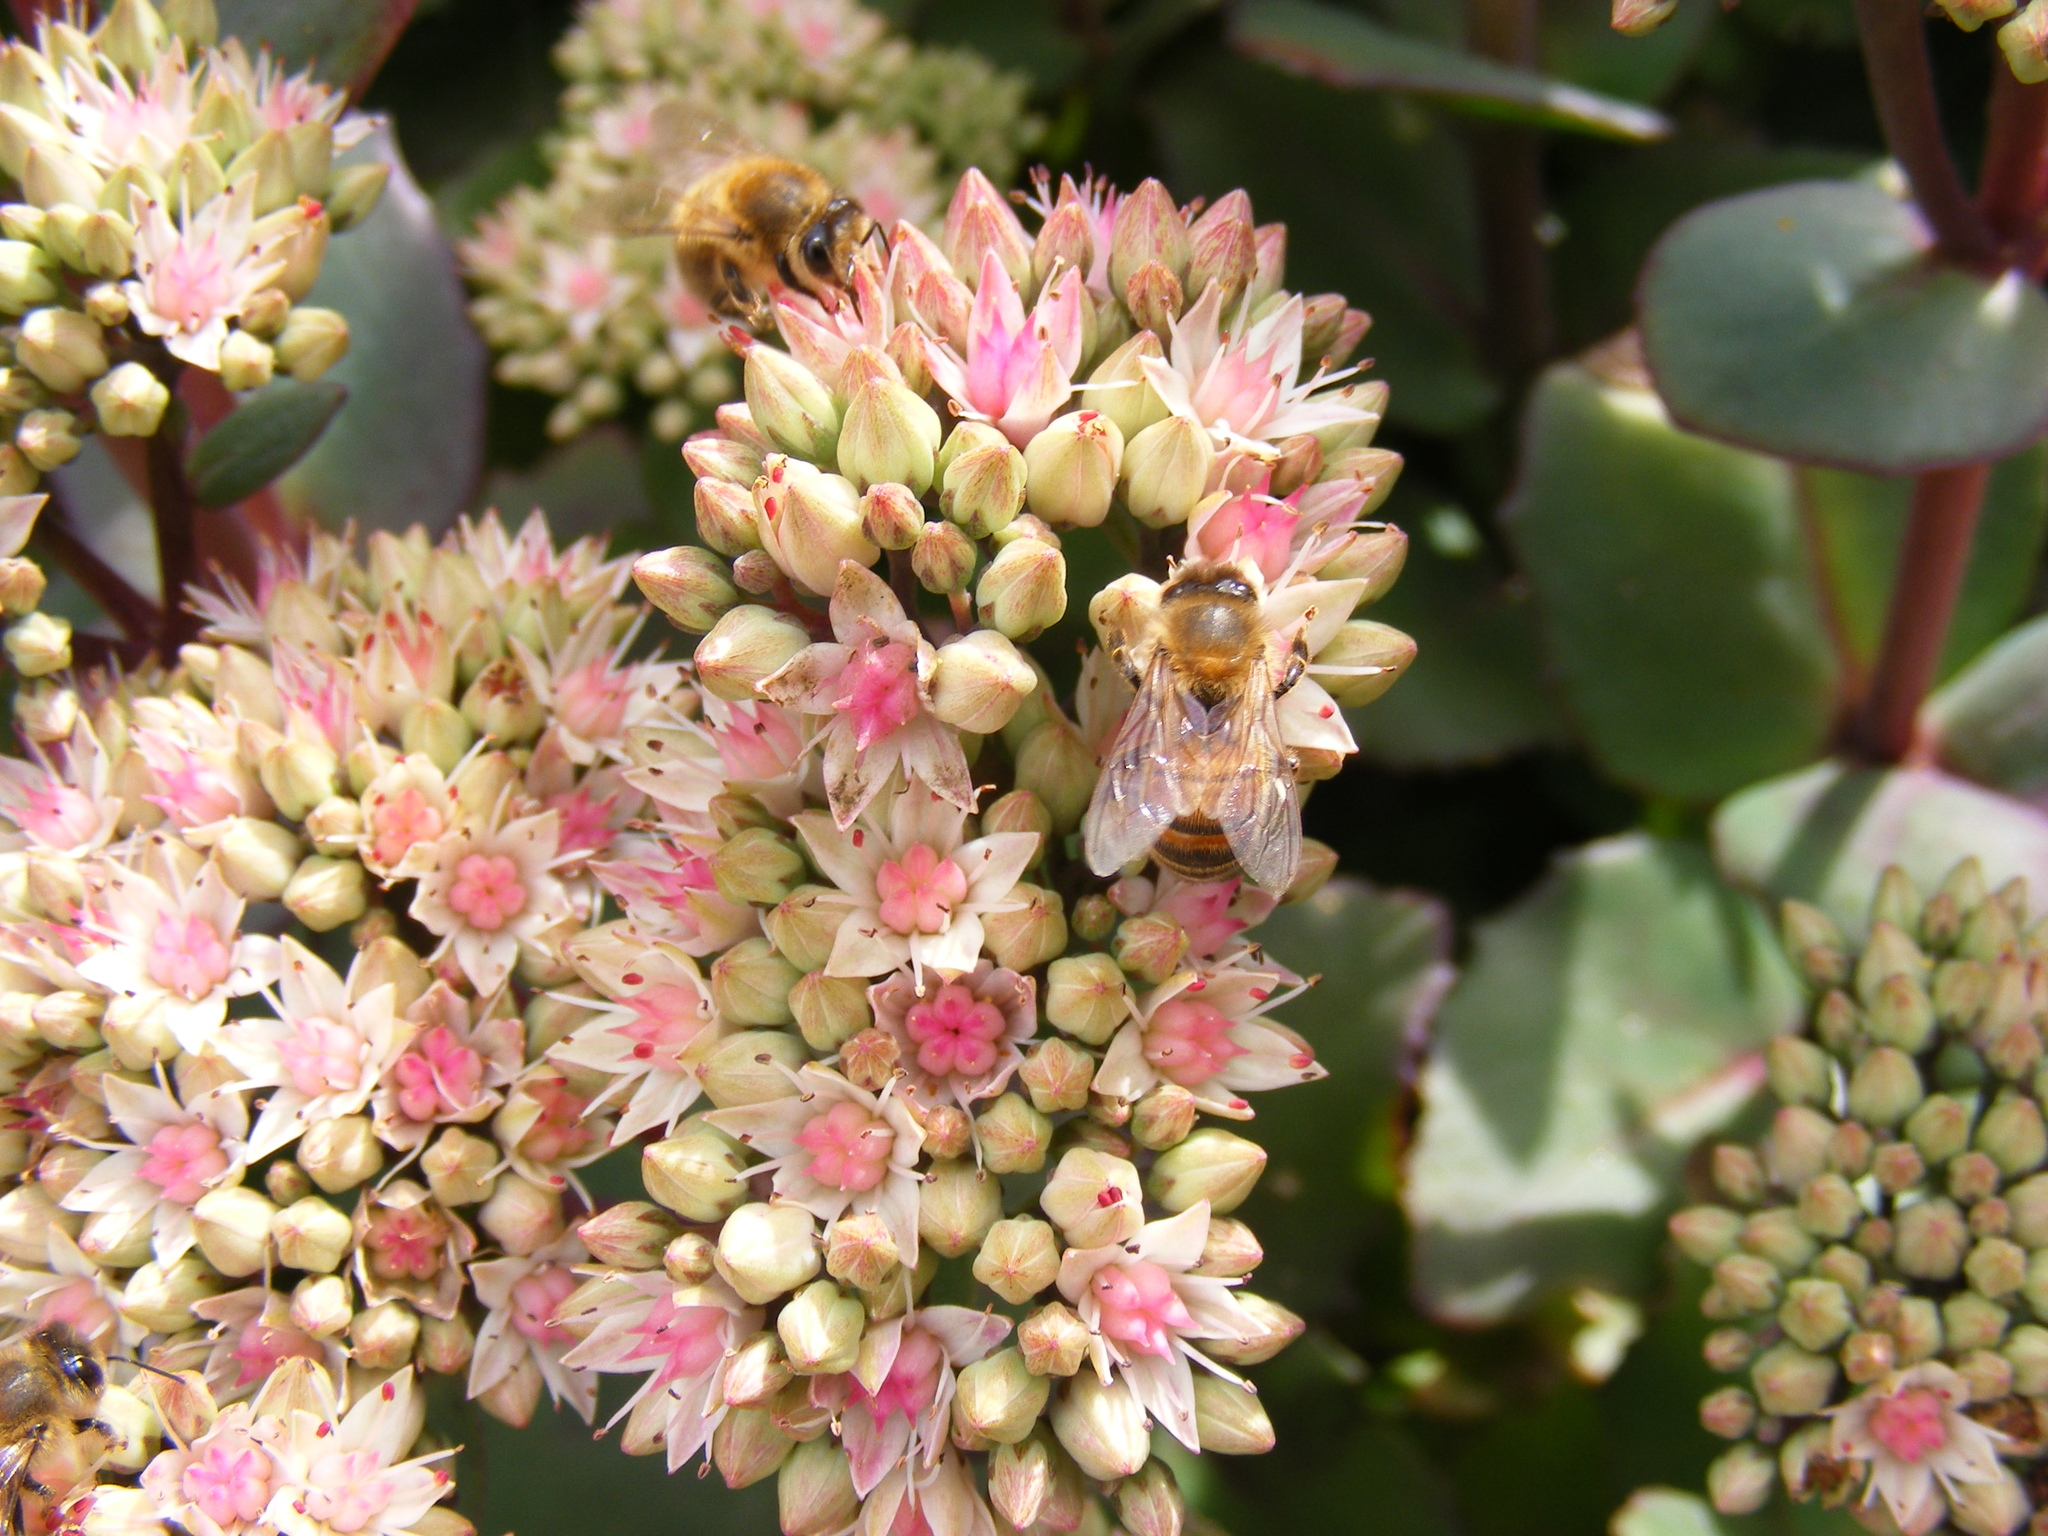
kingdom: Animalia
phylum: Arthropoda
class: Insecta
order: Hymenoptera
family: Apidae
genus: Apis
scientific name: Apis mellifera
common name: Honey bee
